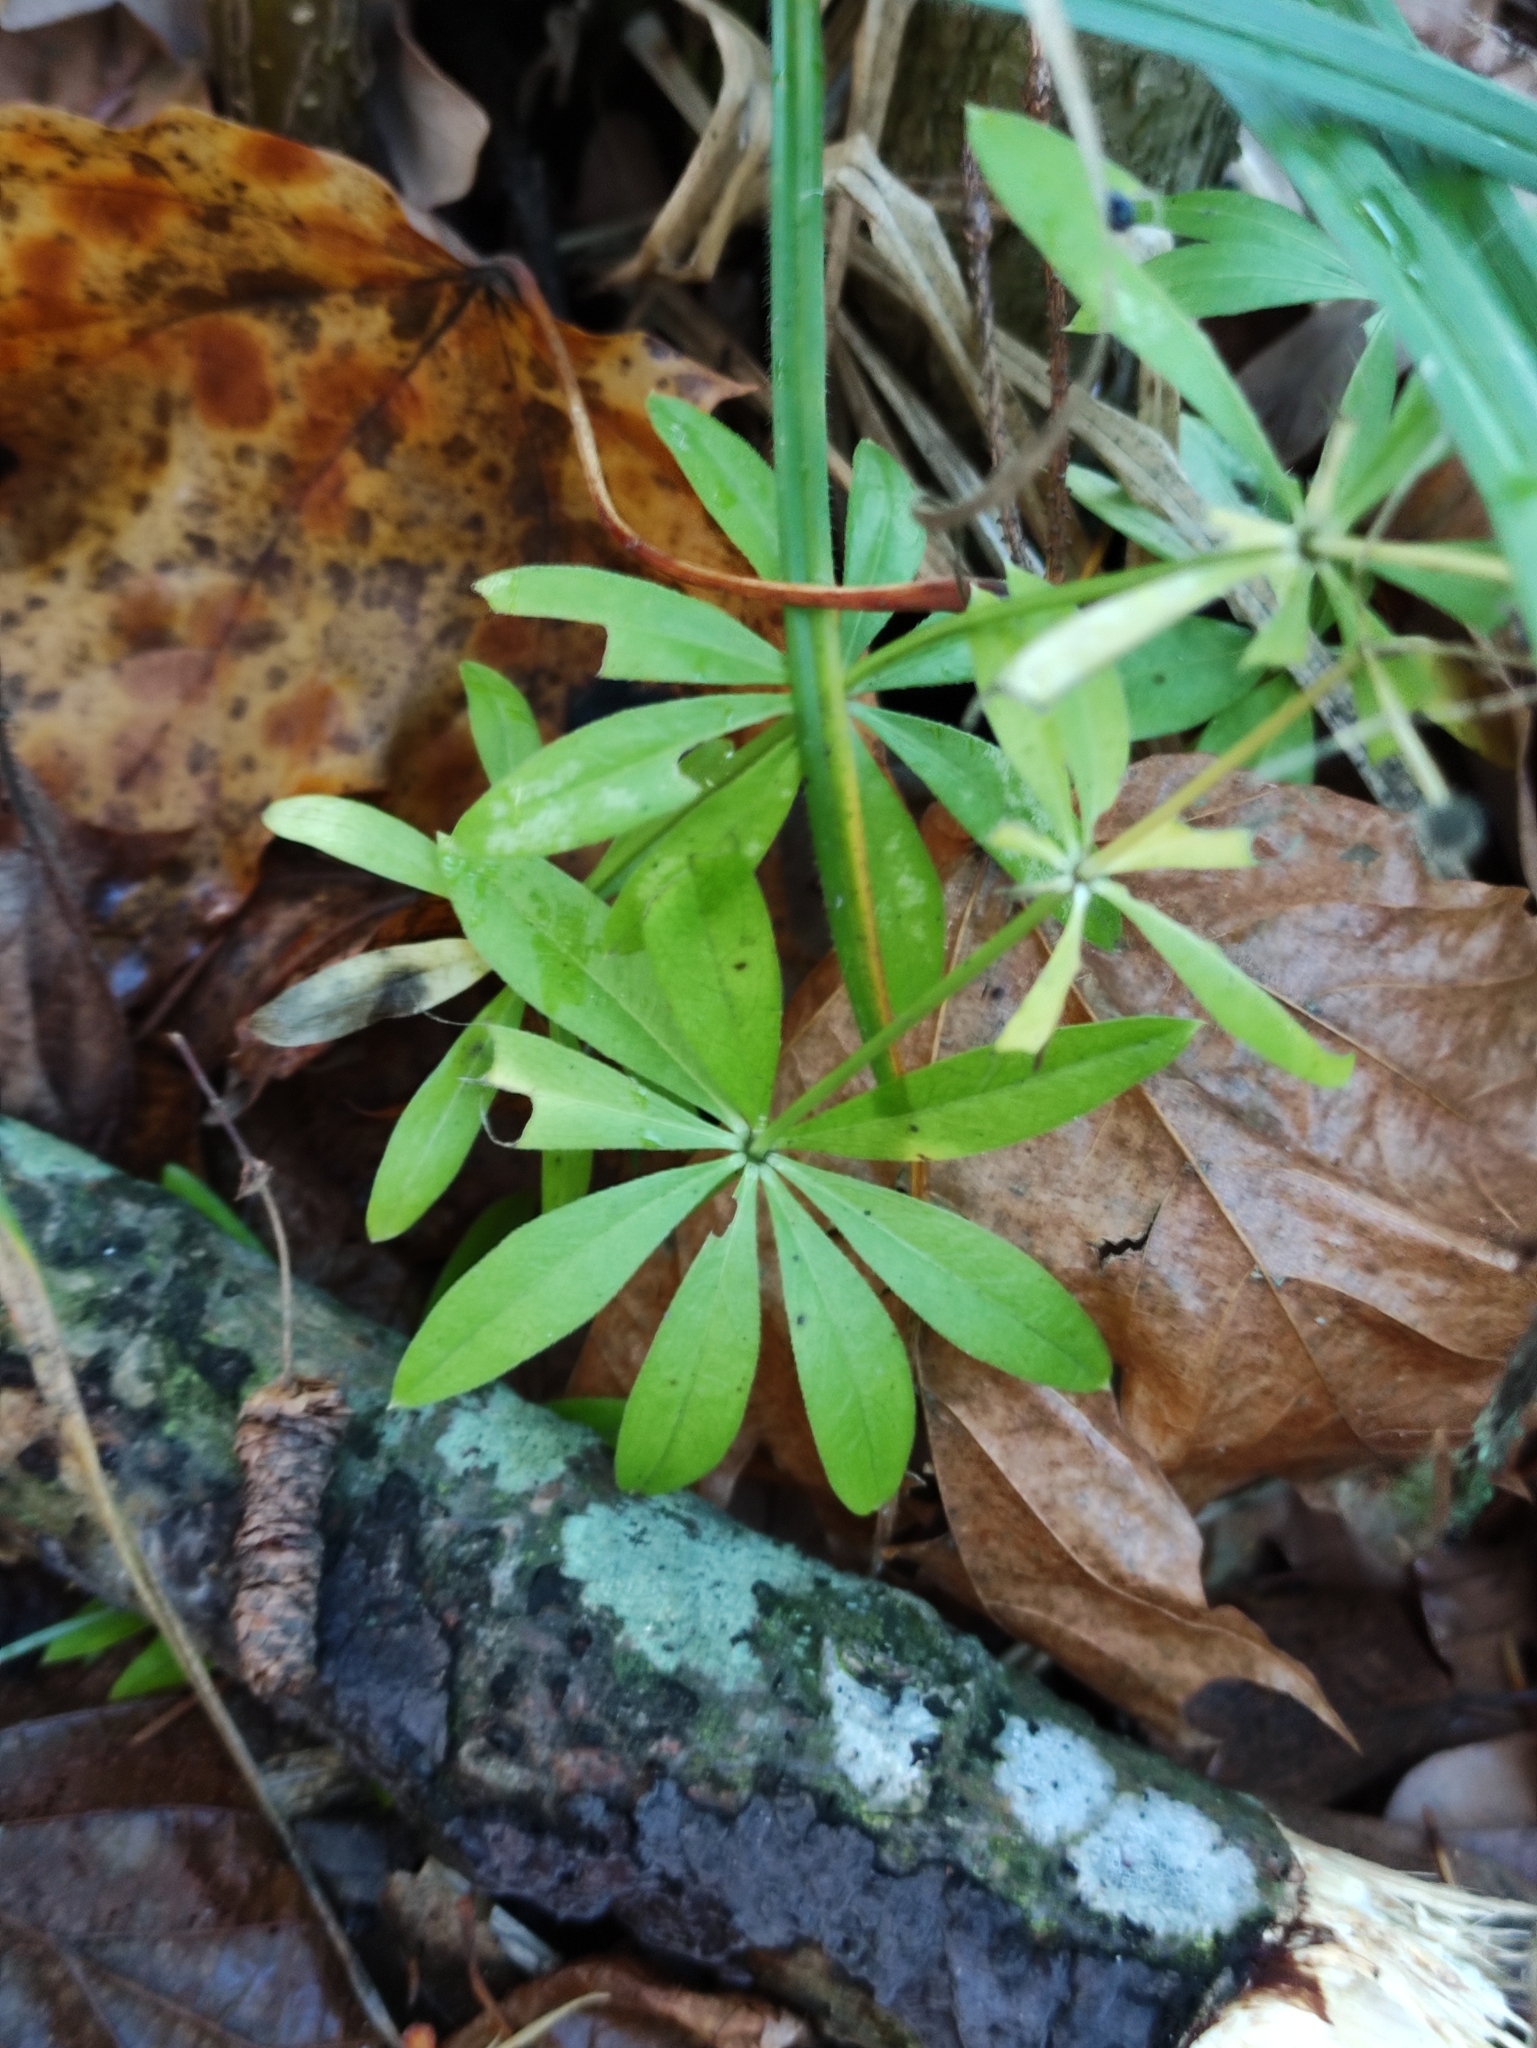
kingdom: Plantae
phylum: Tracheophyta
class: Magnoliopsida
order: Gentianales
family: Rubiaceae
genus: Galium
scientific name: Galium odoratum
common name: Sweet woodruff
